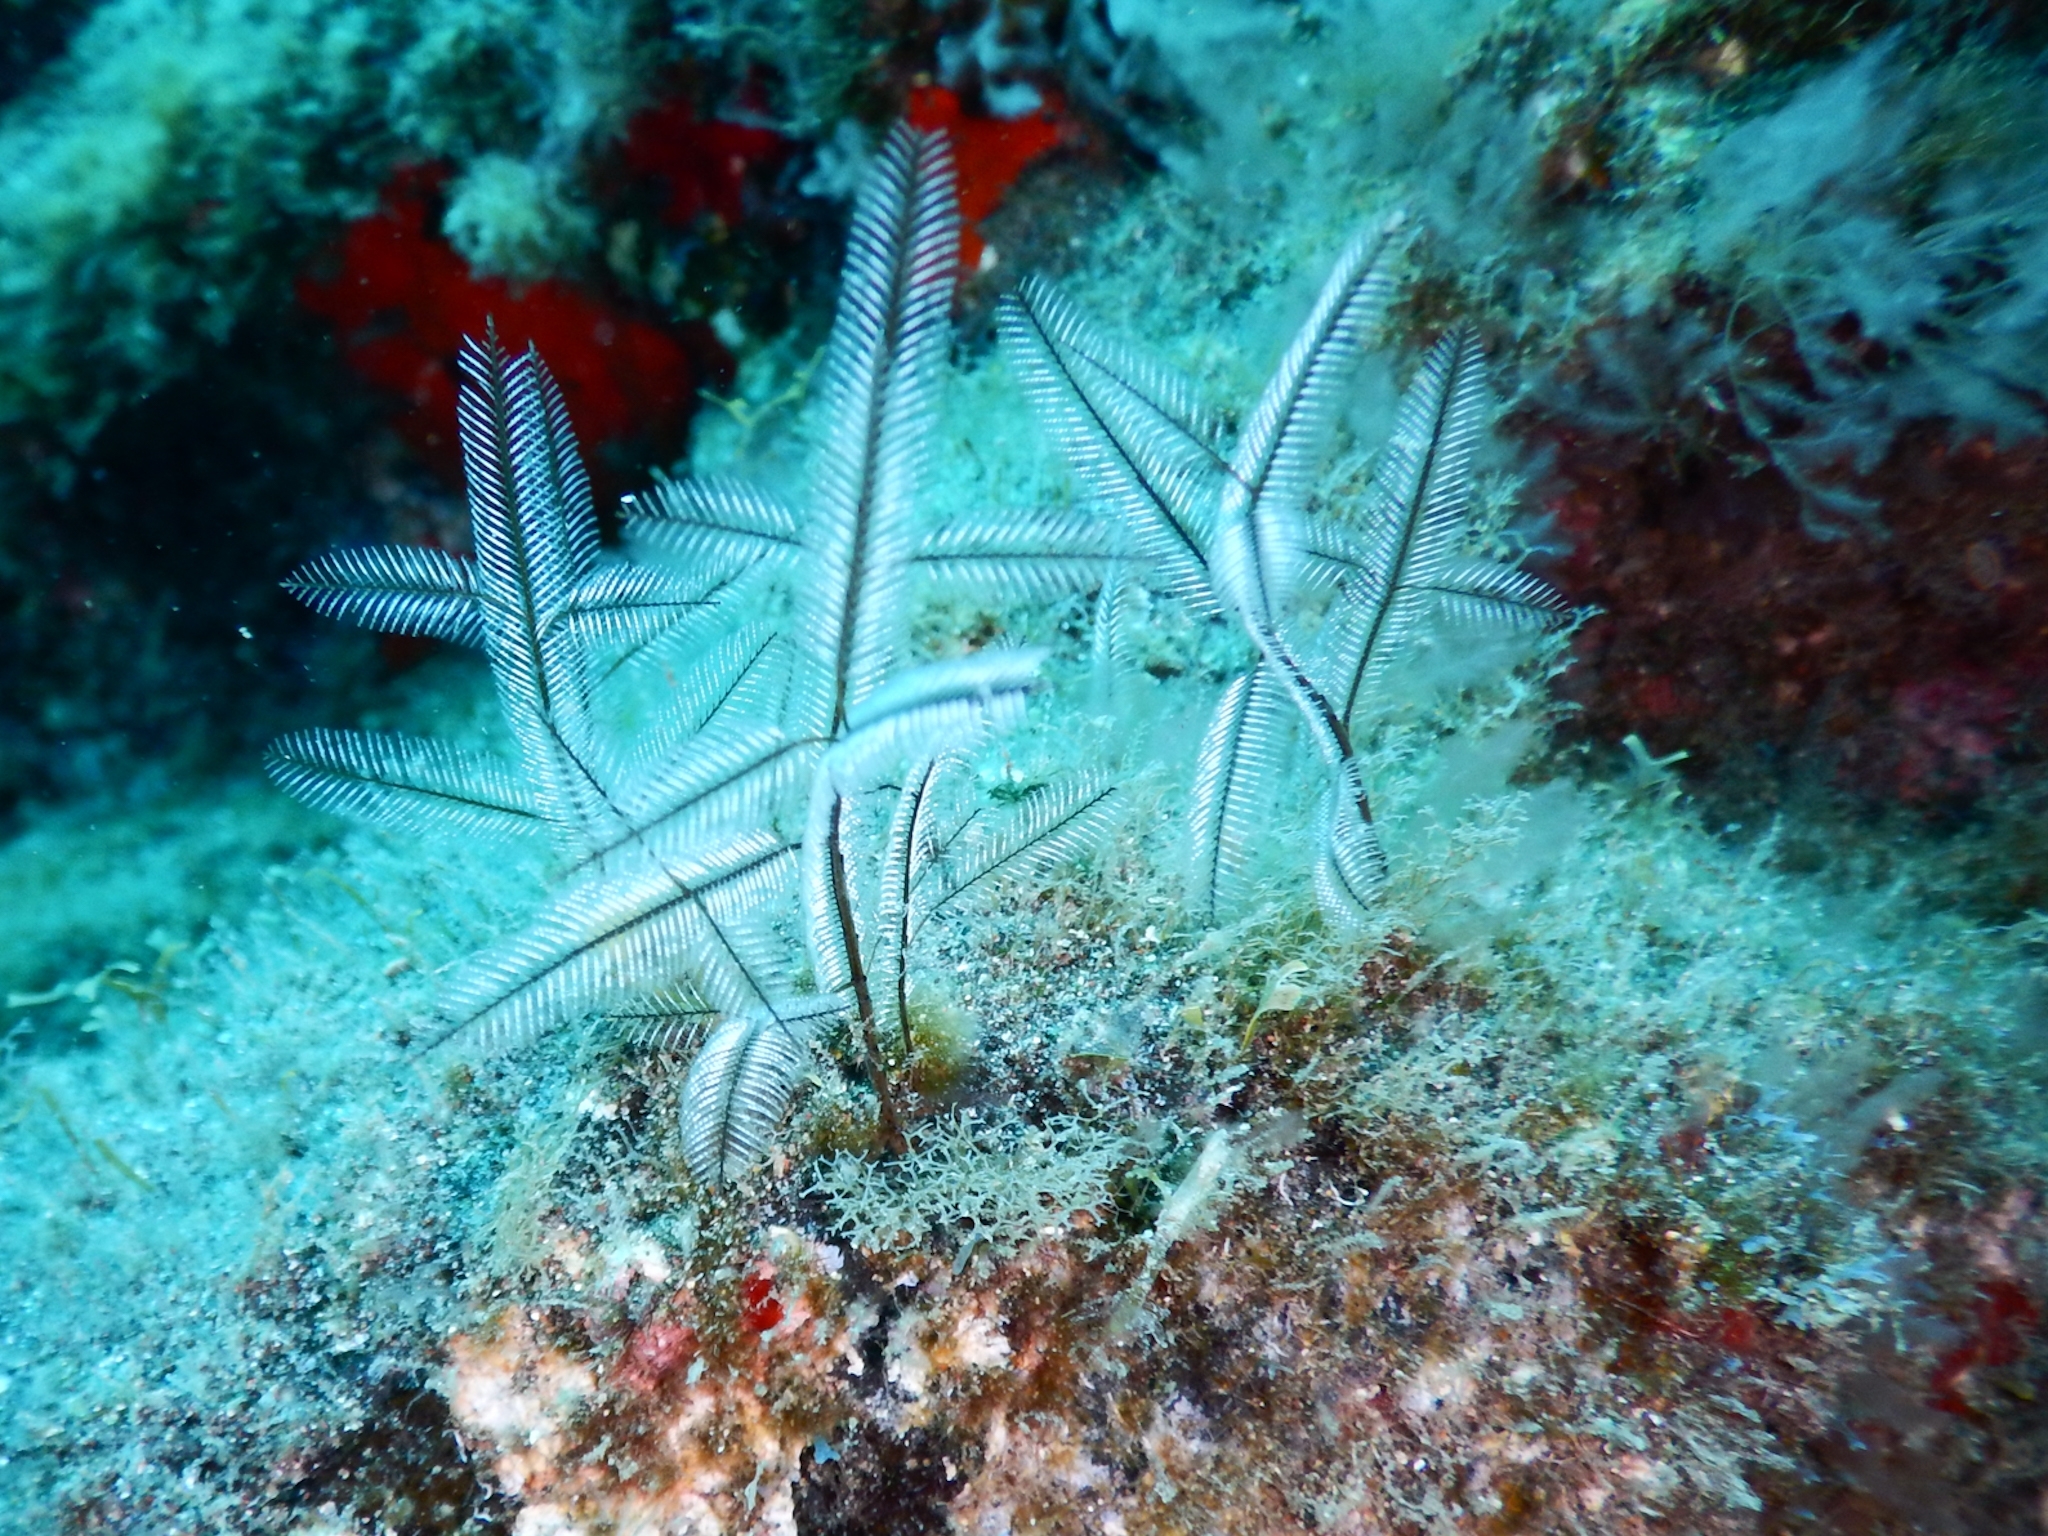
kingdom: Animalia
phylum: Cnidaria
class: Hydrozoa
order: Leptothecata
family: Aglaopheniidae
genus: Macrorhynchia
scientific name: Macrorhynchia philippina
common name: Stinging hydroid
